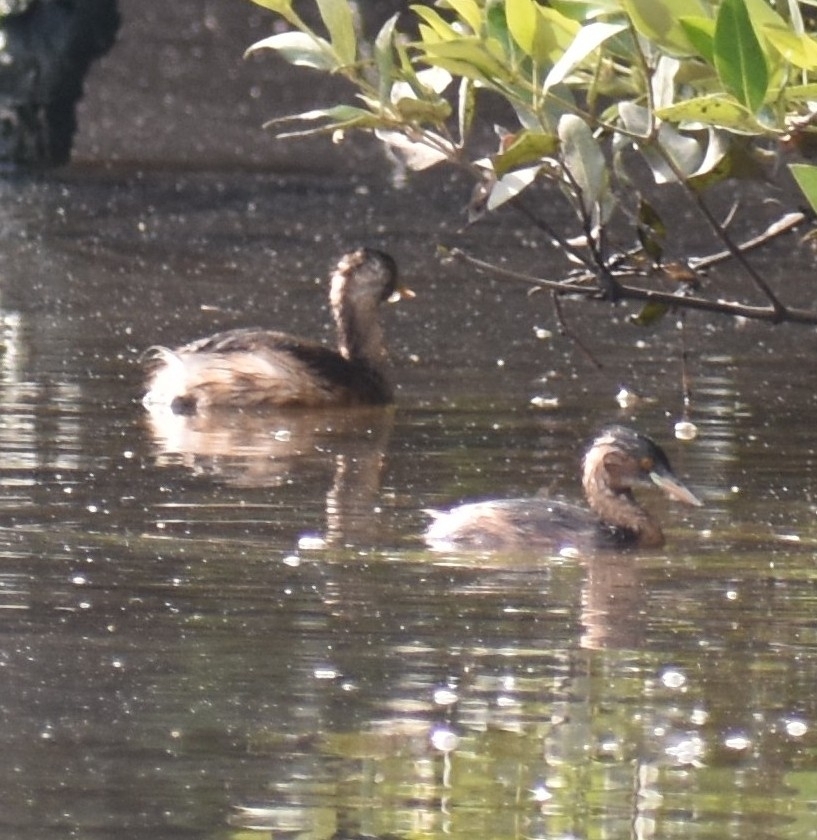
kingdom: Animalia
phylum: Chordata
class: Aves
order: Podicipediformes
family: Podicipedidae
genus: Tachybaptus
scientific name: Tachybaptus ruficollis
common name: Little grebe
